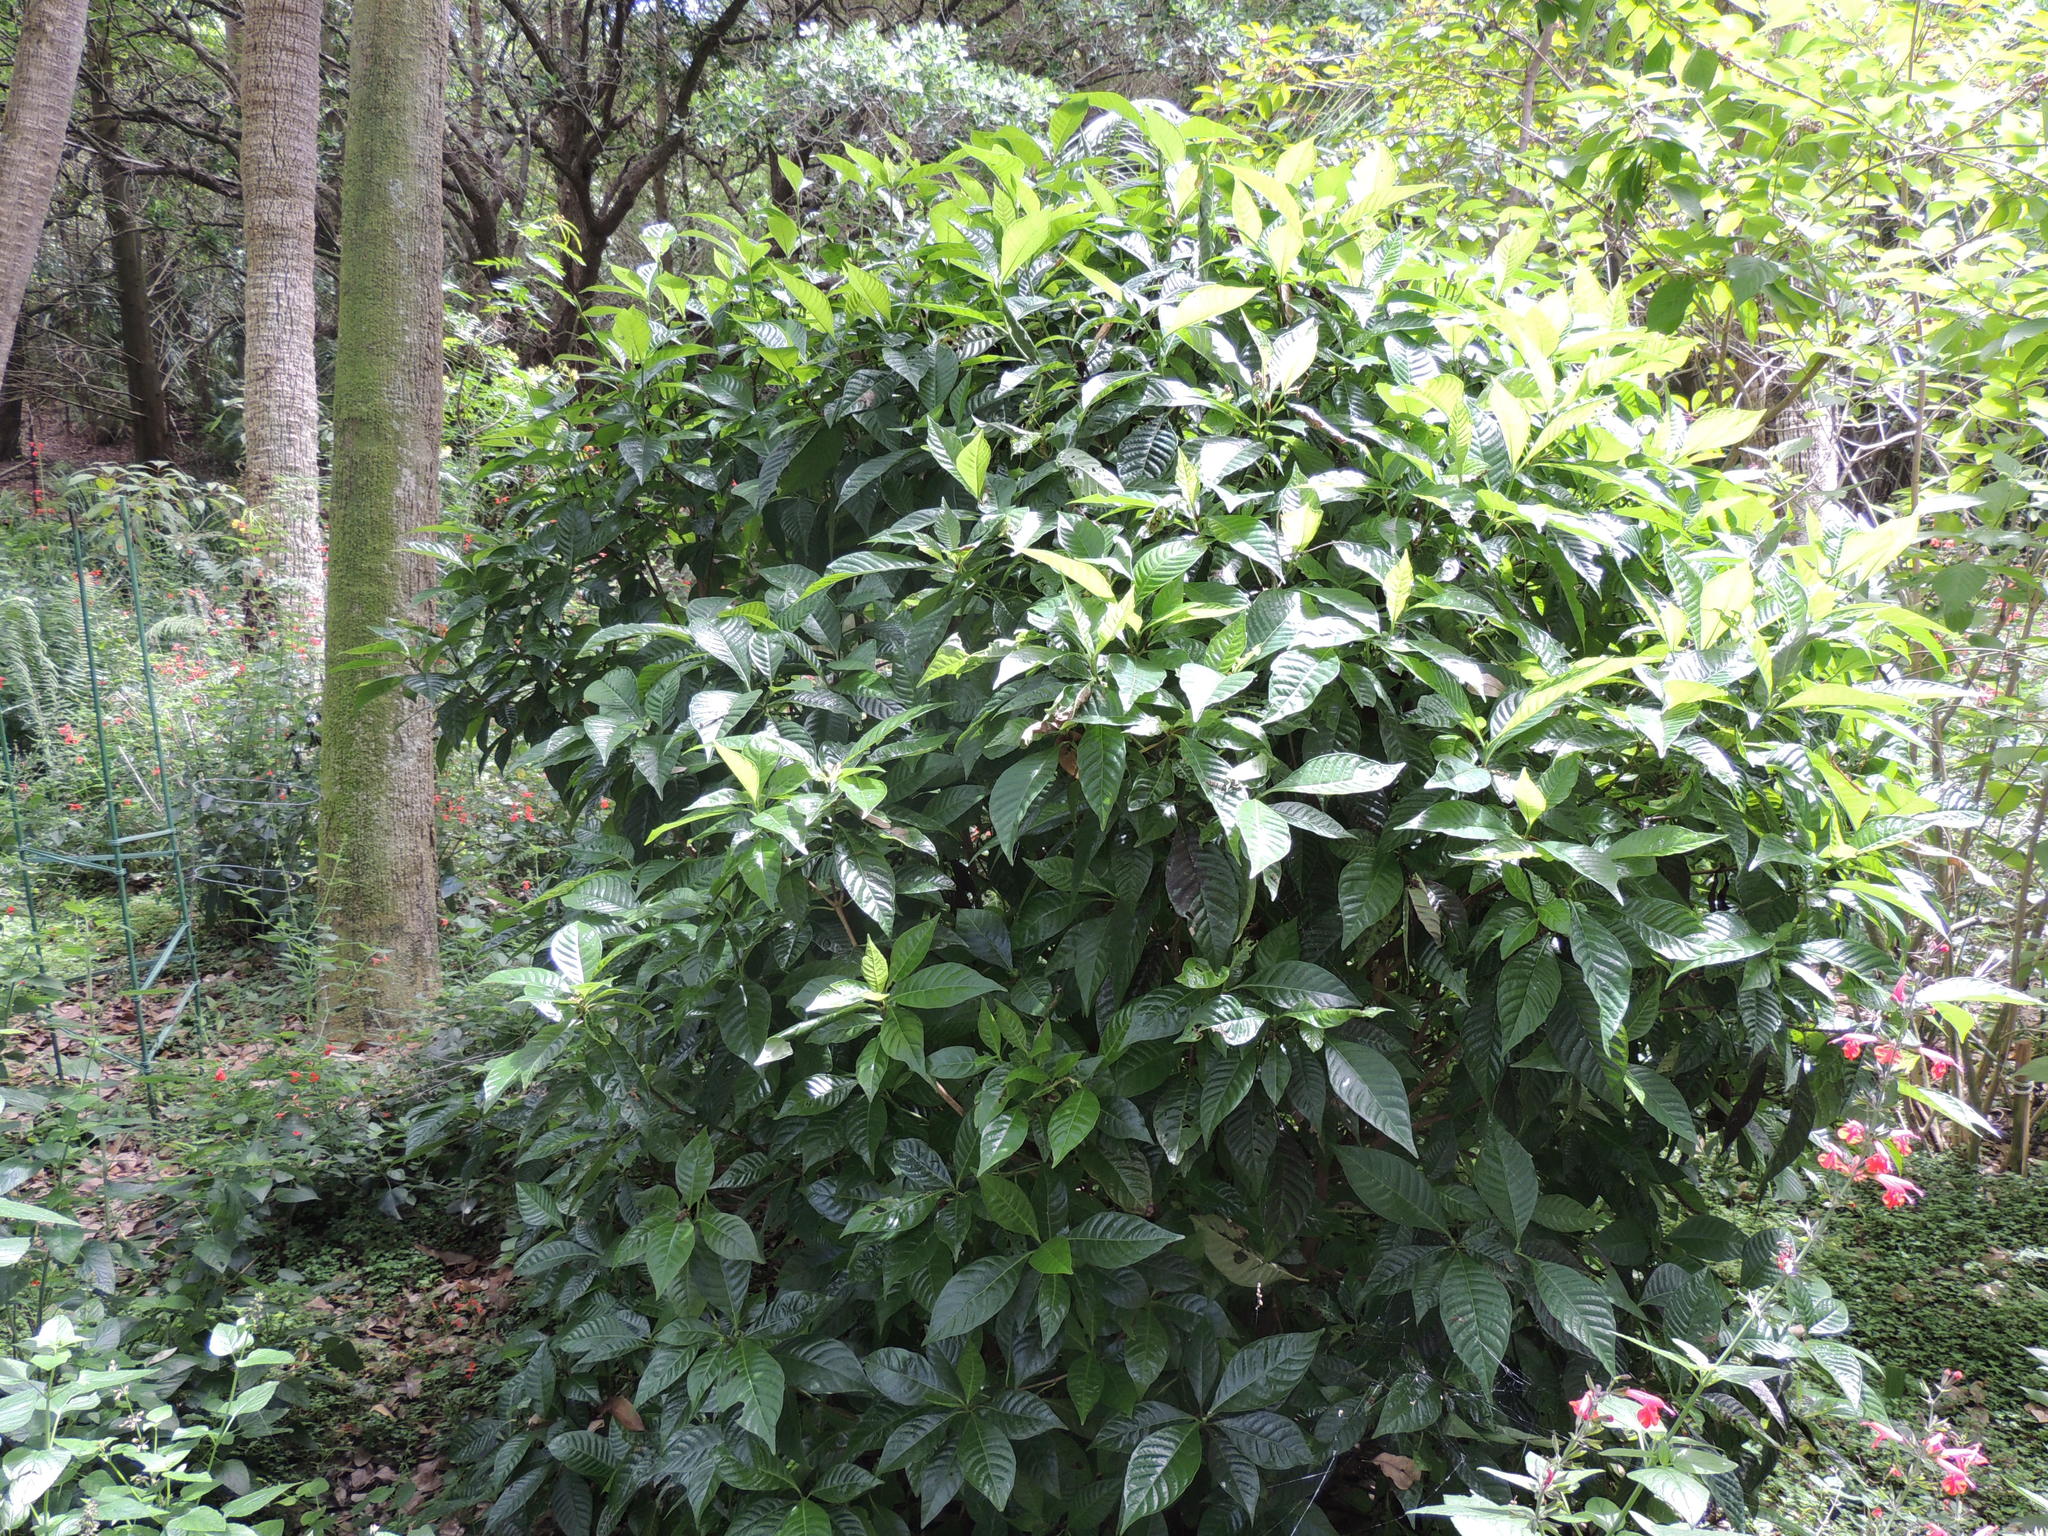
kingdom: Plantae
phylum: Tracheophyta
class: Magnoliopsida
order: Gentianales
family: Rubiaceae
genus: Psychotria
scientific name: Psychotria nervosa
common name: Bastard cankerberry
